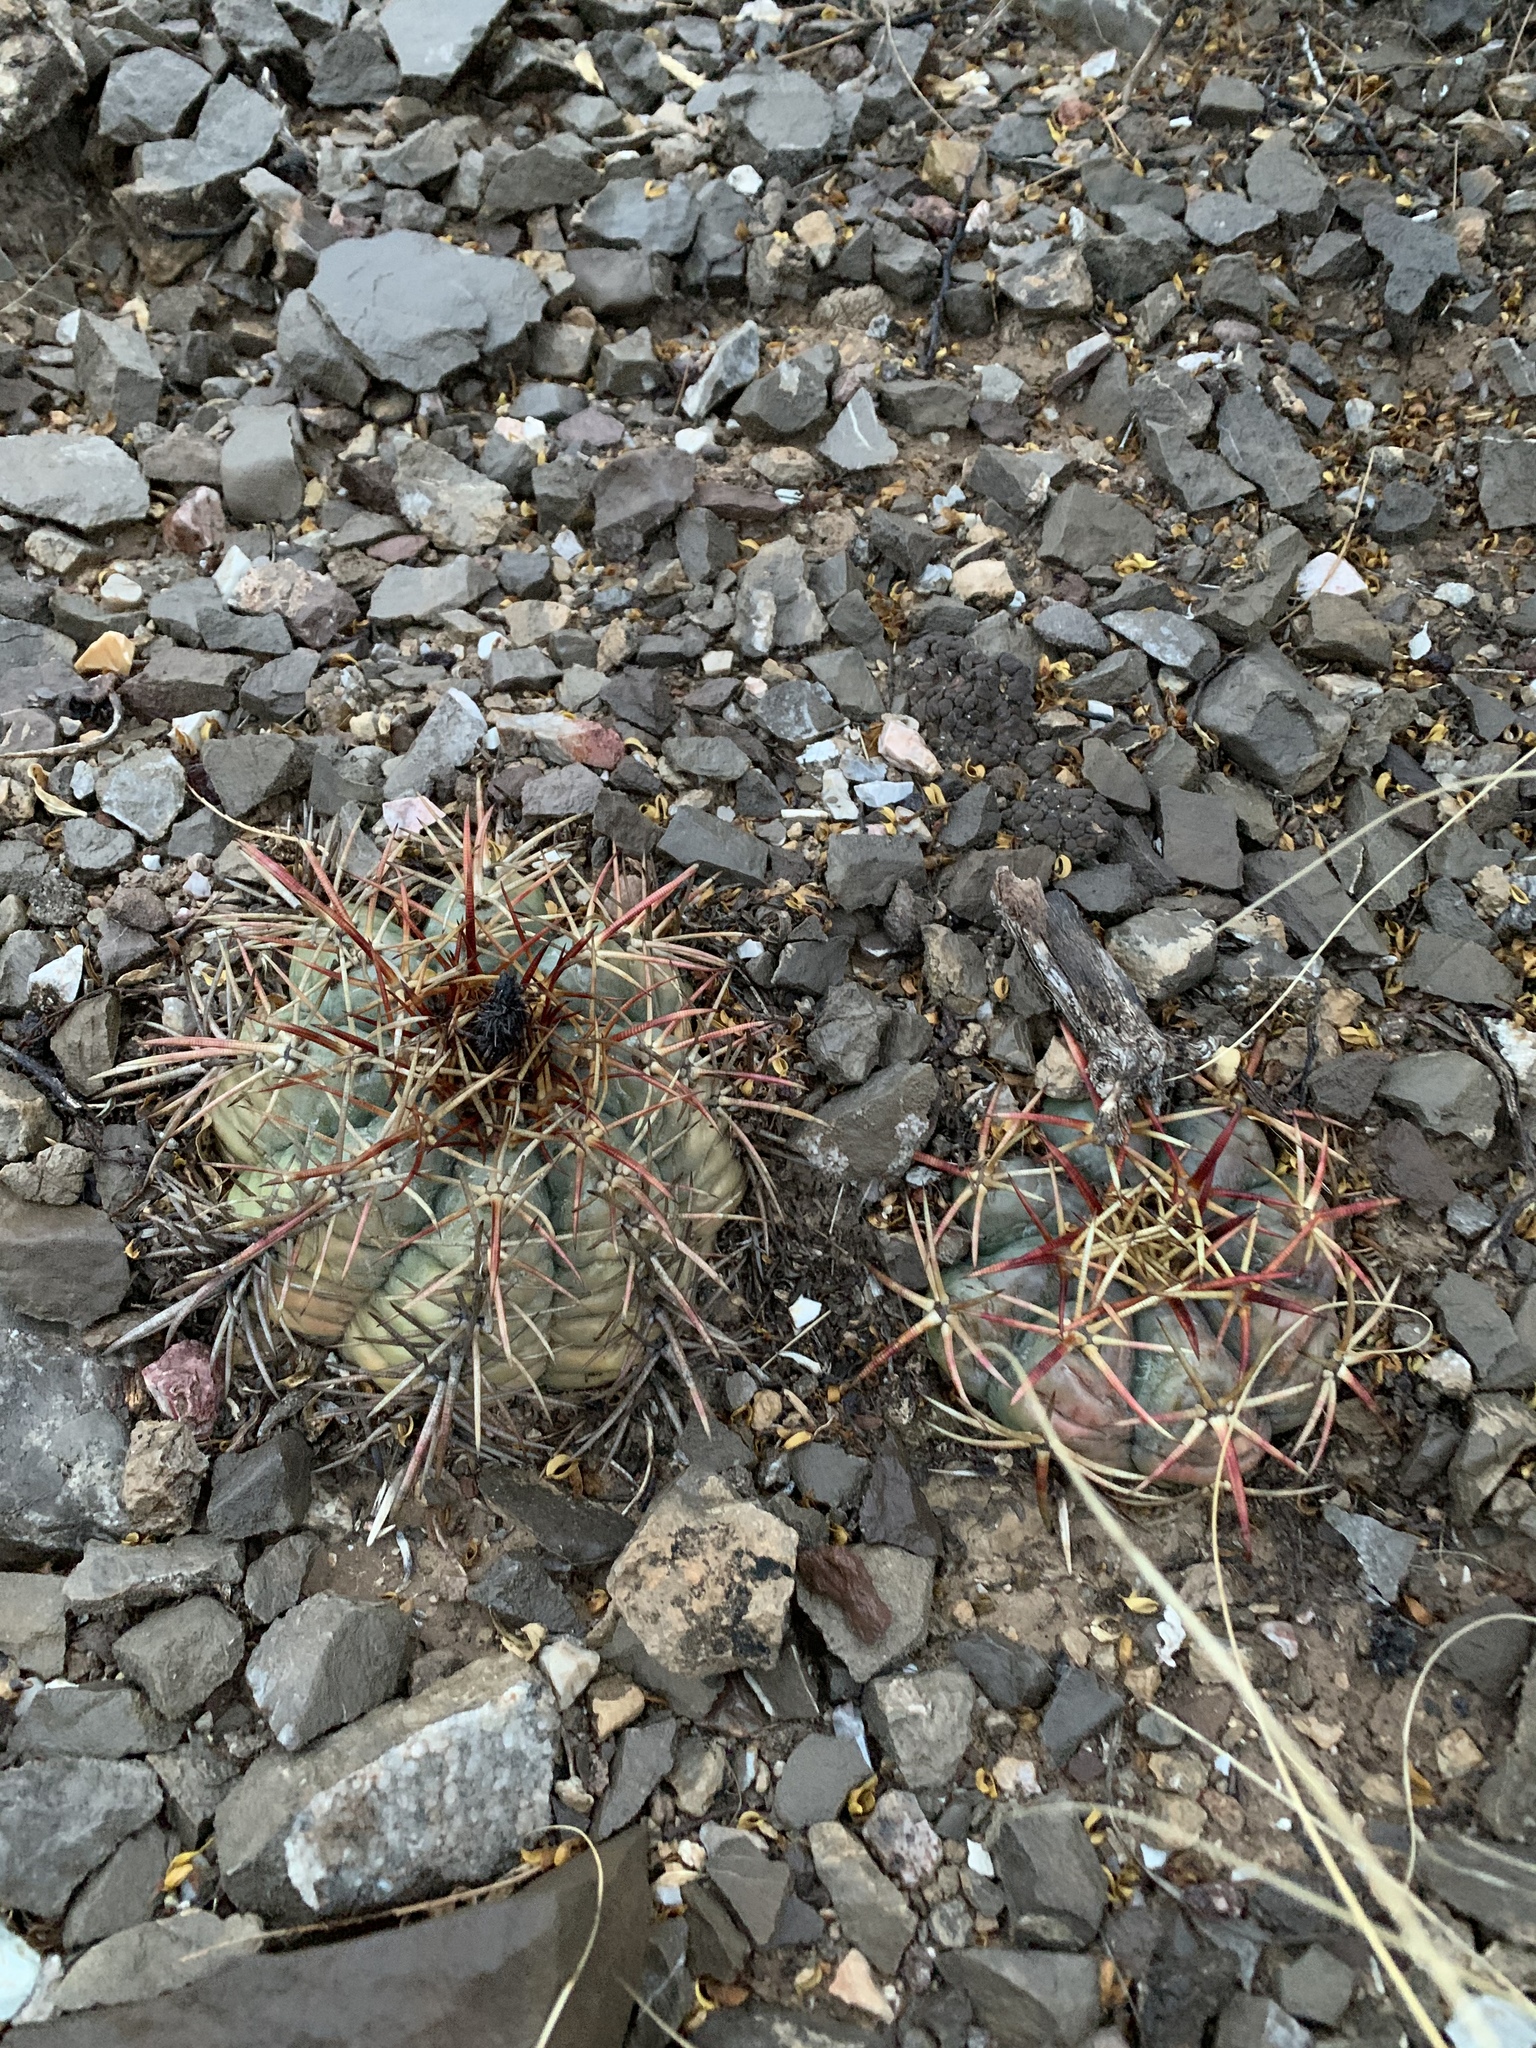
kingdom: Plantae
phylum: Tracheophyta
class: Magnoliopsida
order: Caryophyllales
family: Cactaceae
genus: Echinocactus
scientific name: Echinocactus horizonthalonius
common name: Devilshead
